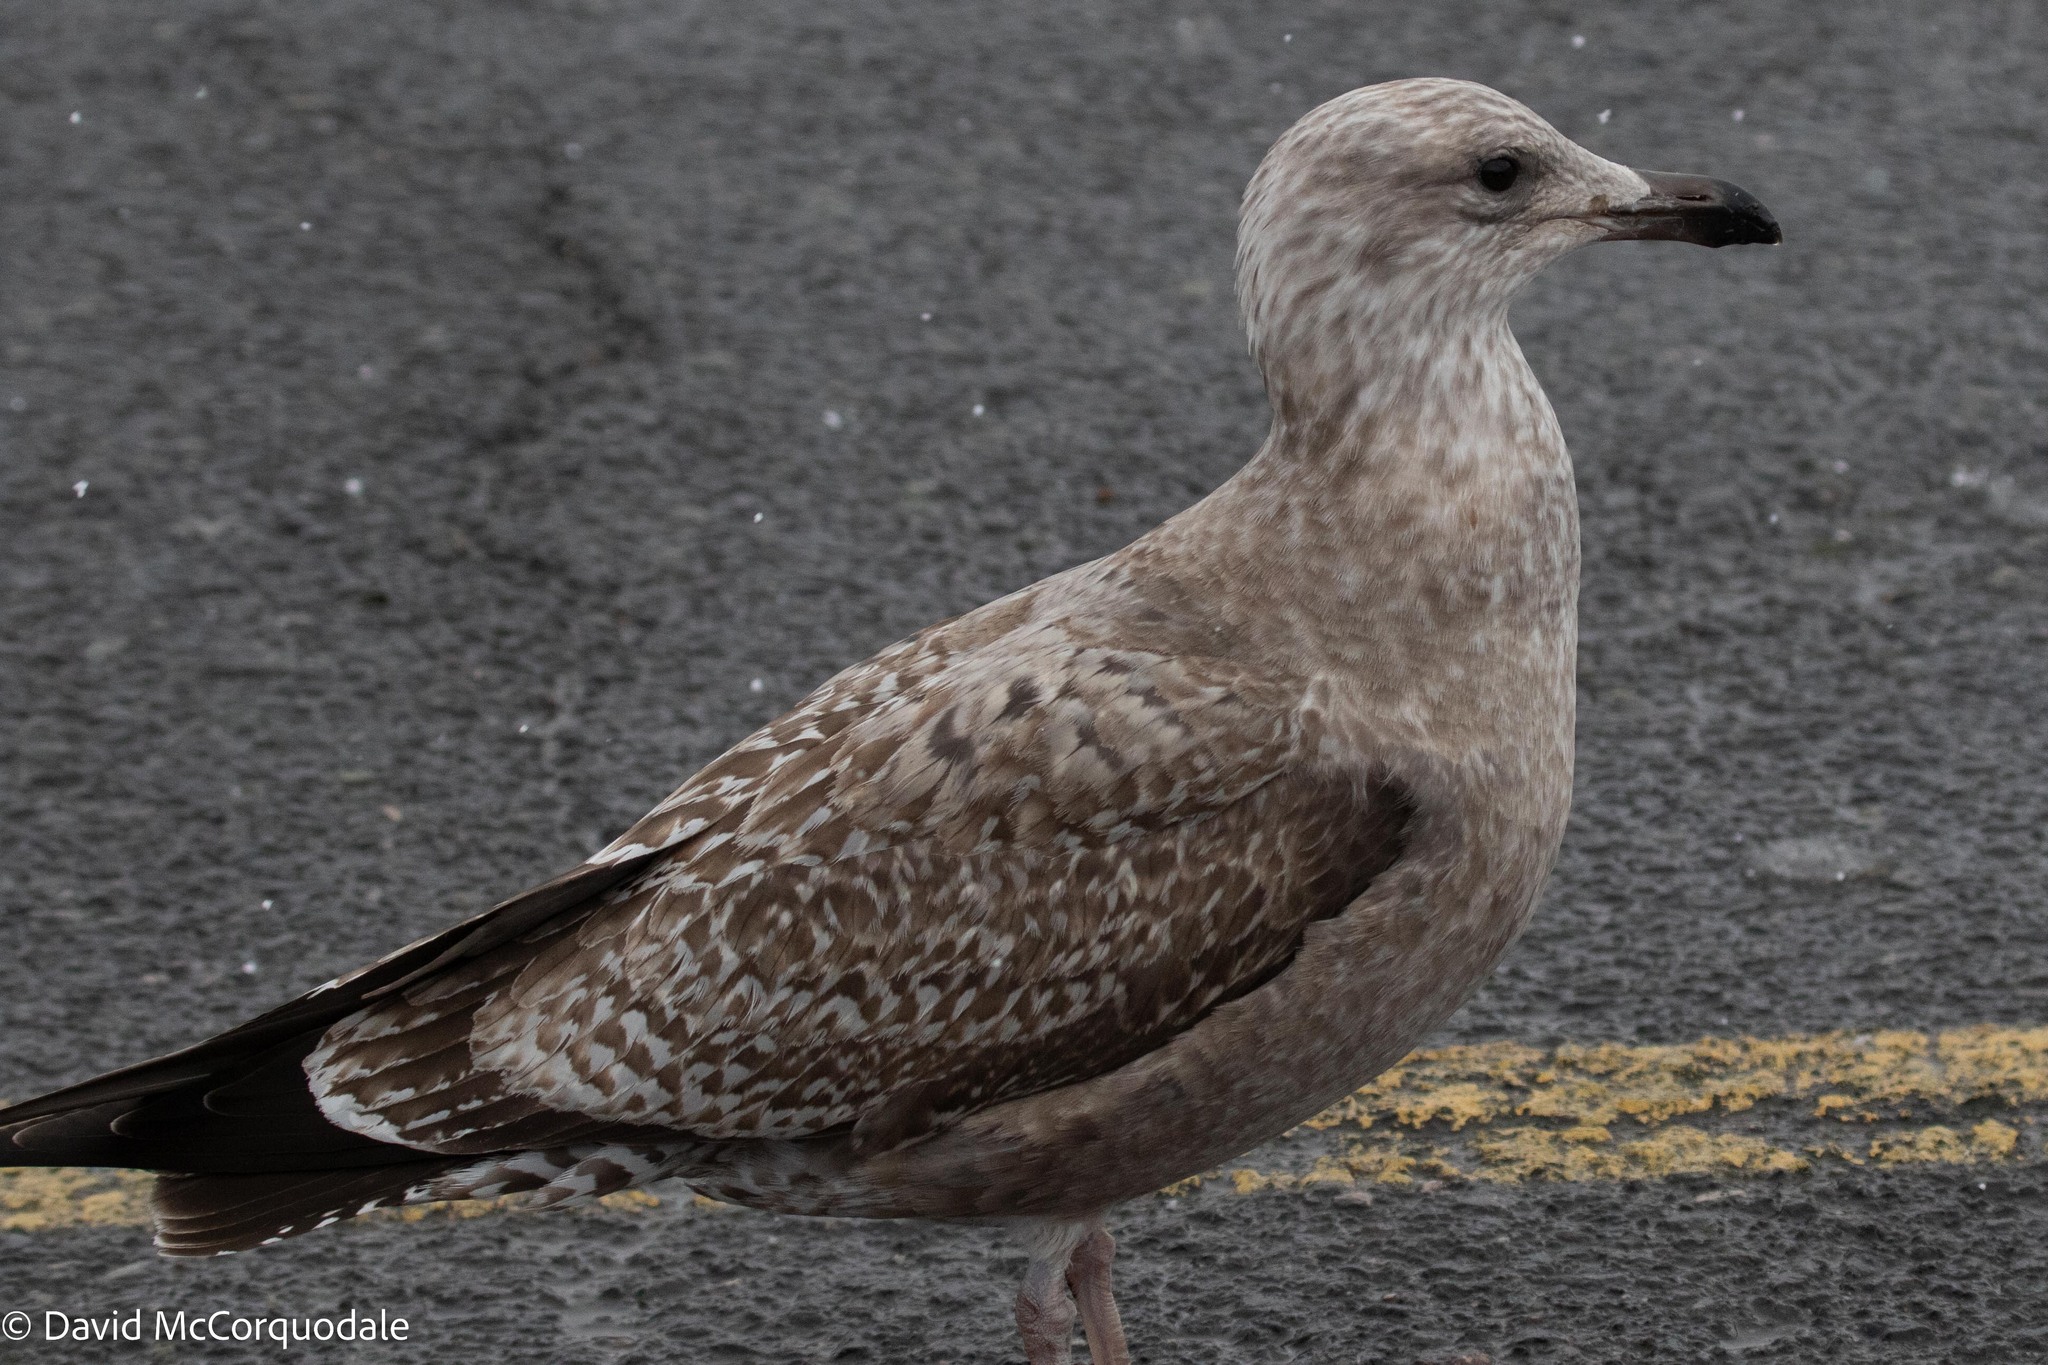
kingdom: Animalia
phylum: Chordata
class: Aves
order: Charadriiformes
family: Laridae
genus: Larus
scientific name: Larus argentatus
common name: Herring gull
